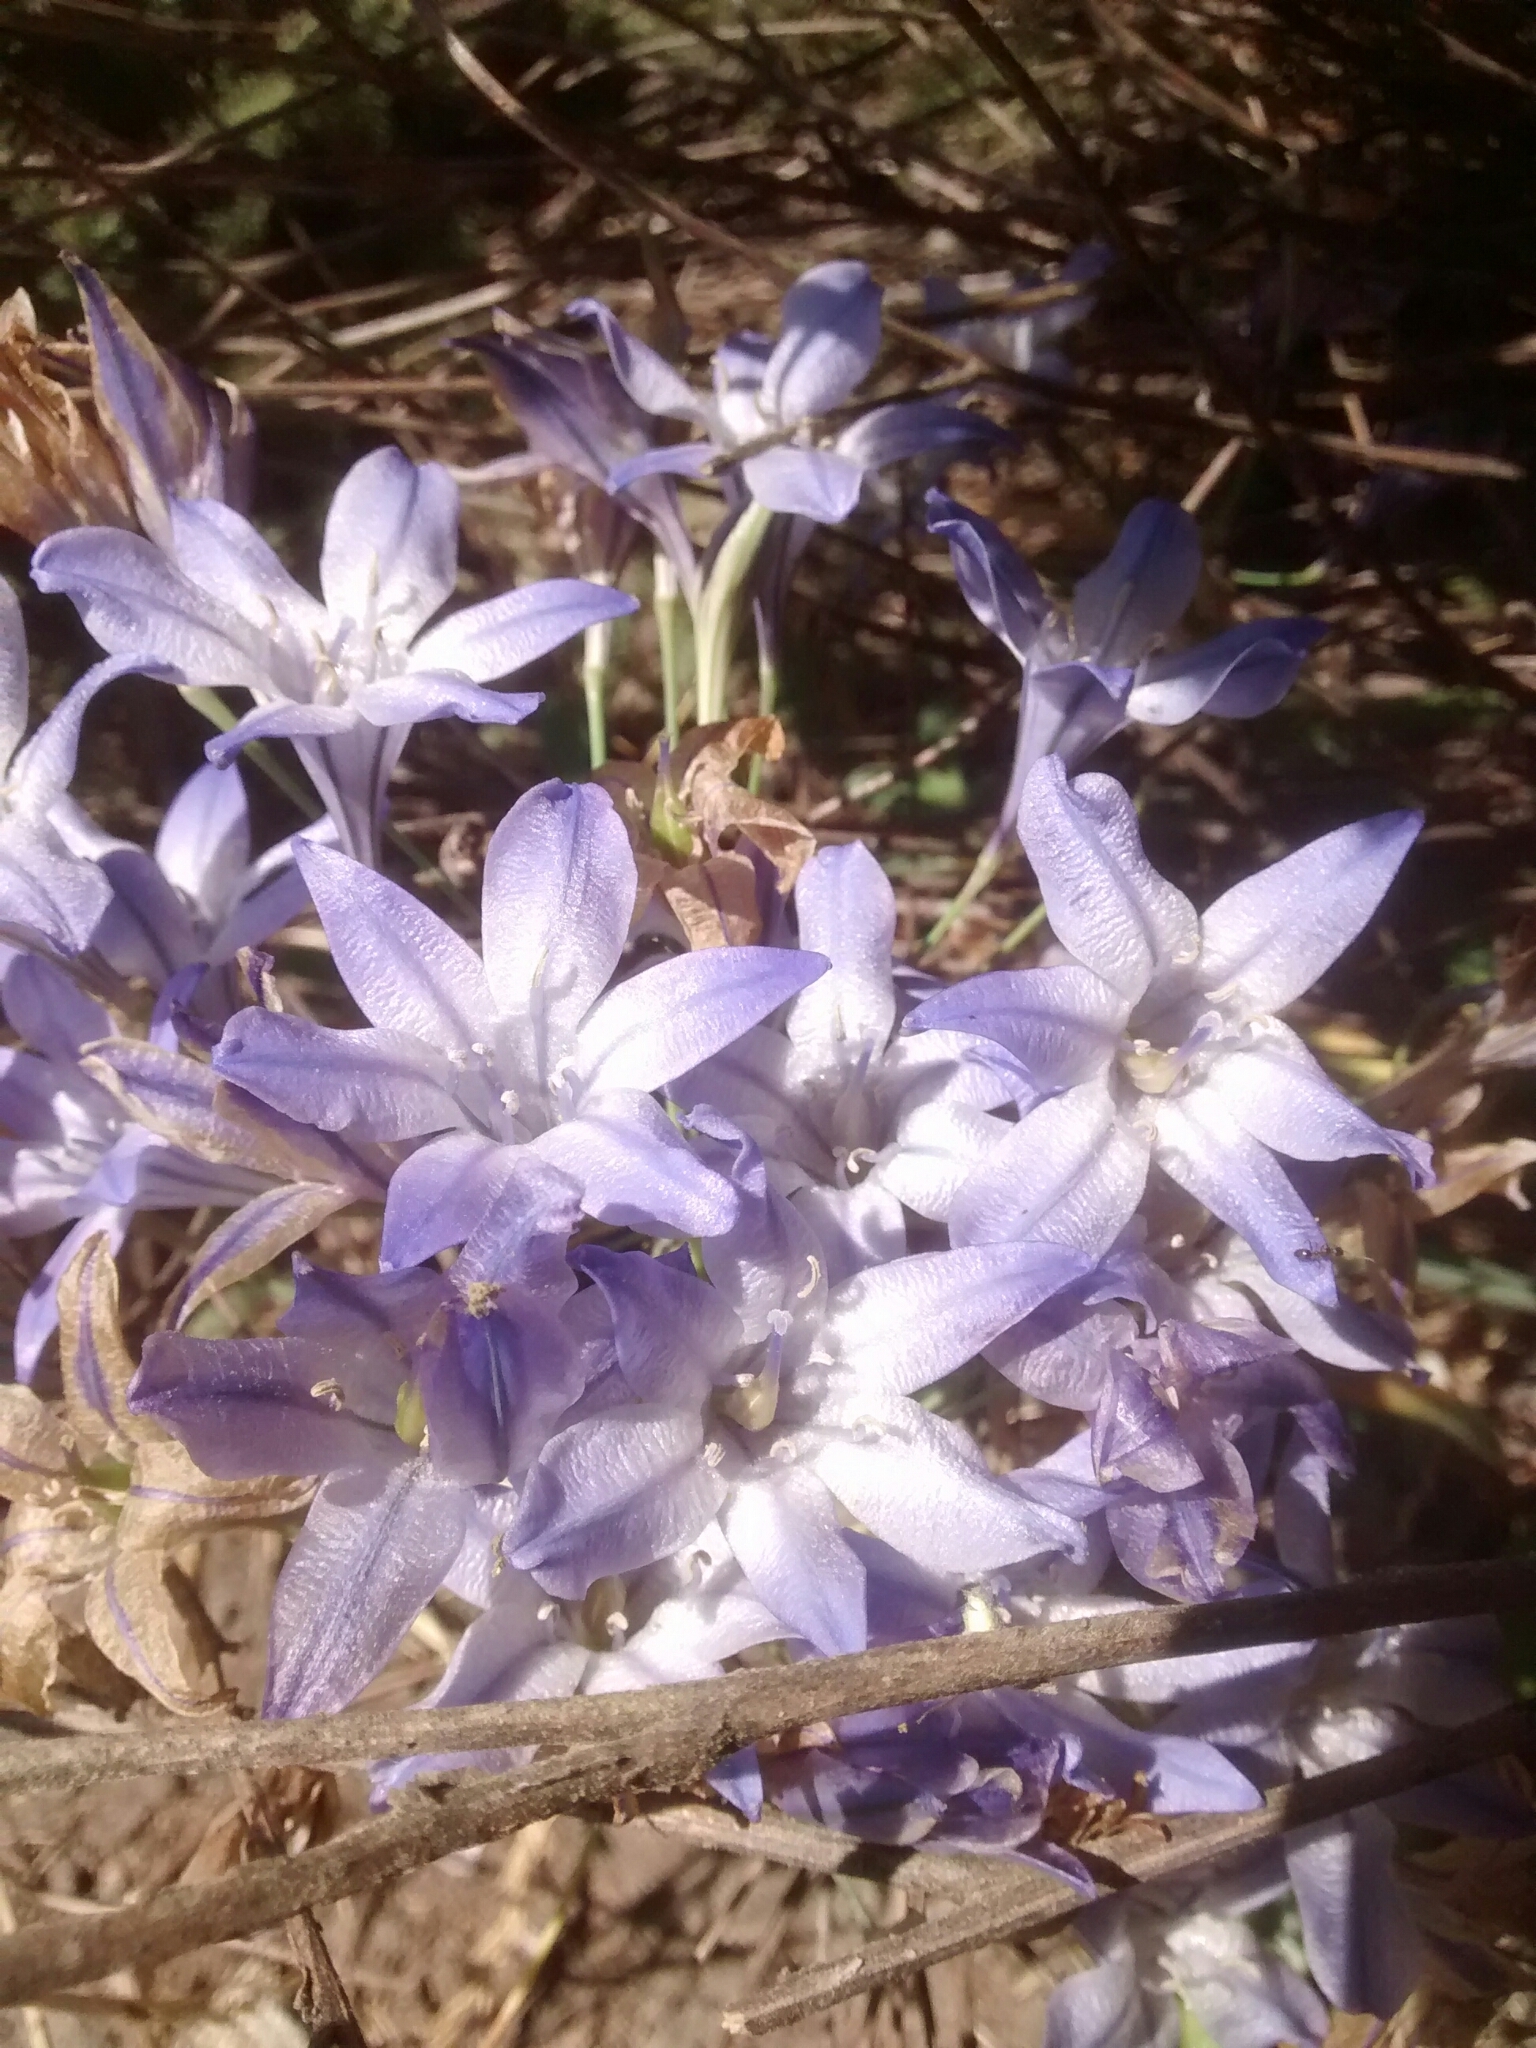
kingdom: Plantae
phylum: Tracheophyta
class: Liliopsida
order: Asparagales
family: Asparagaceae
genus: Triteleia
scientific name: Triteleia laxa
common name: Triplet-lily
